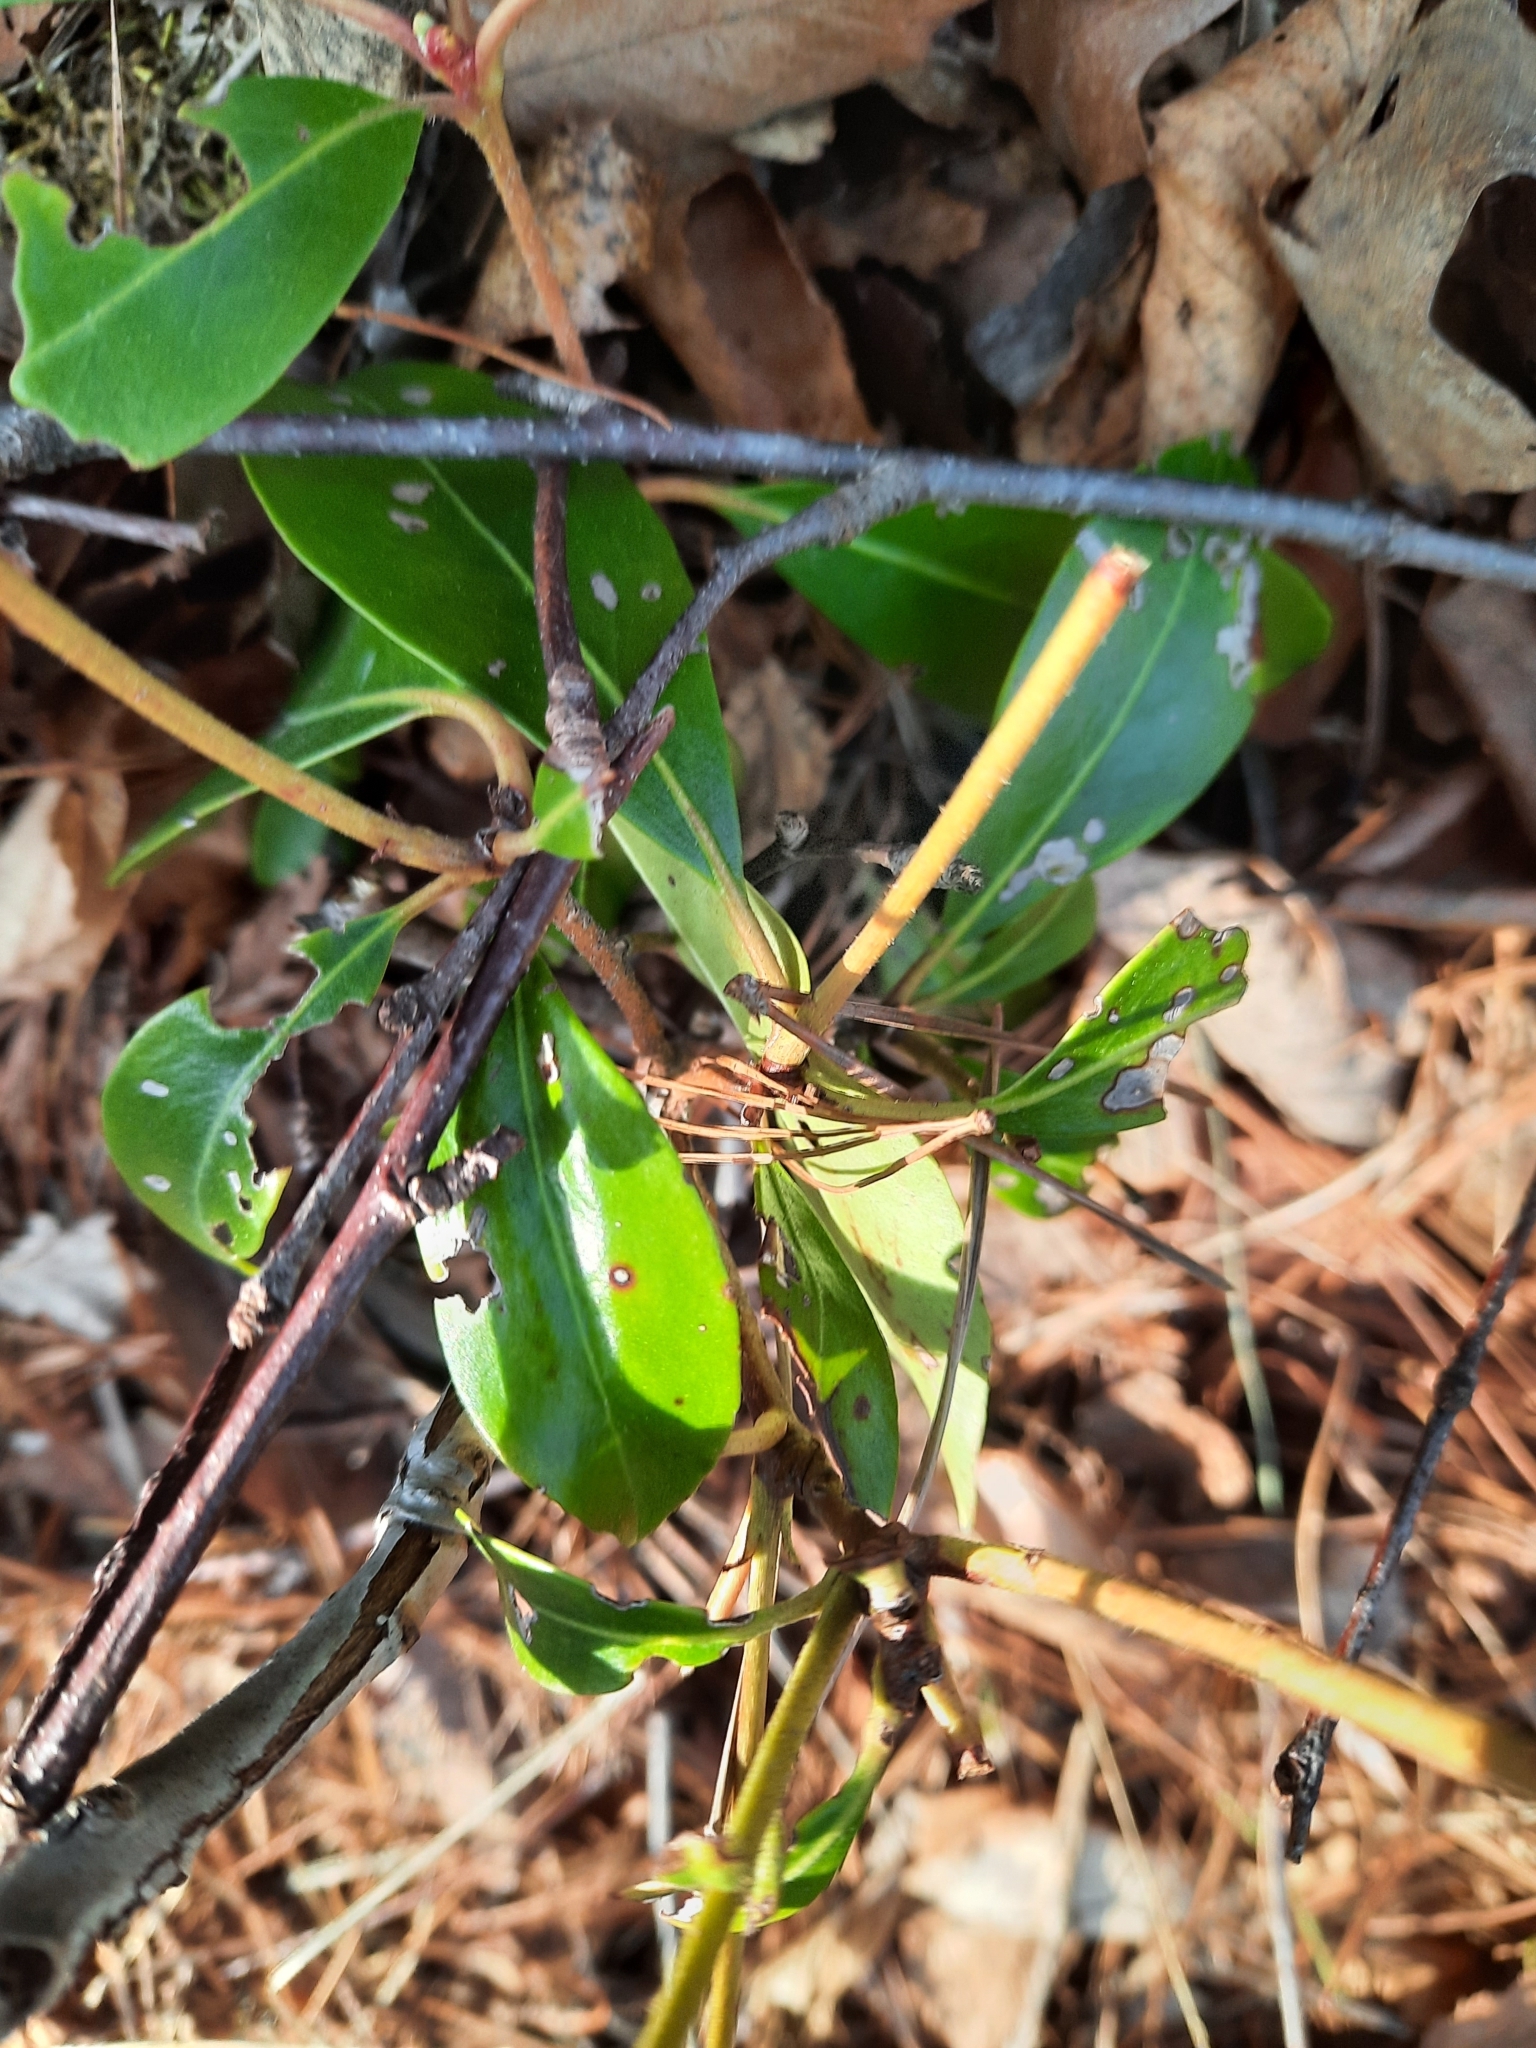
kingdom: Plantae
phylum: Tracheophyta
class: Magnoliopsida
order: Ericales
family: Ericaceae
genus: Kalmia
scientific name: Kalmia latifolia
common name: Mountain-laurel
